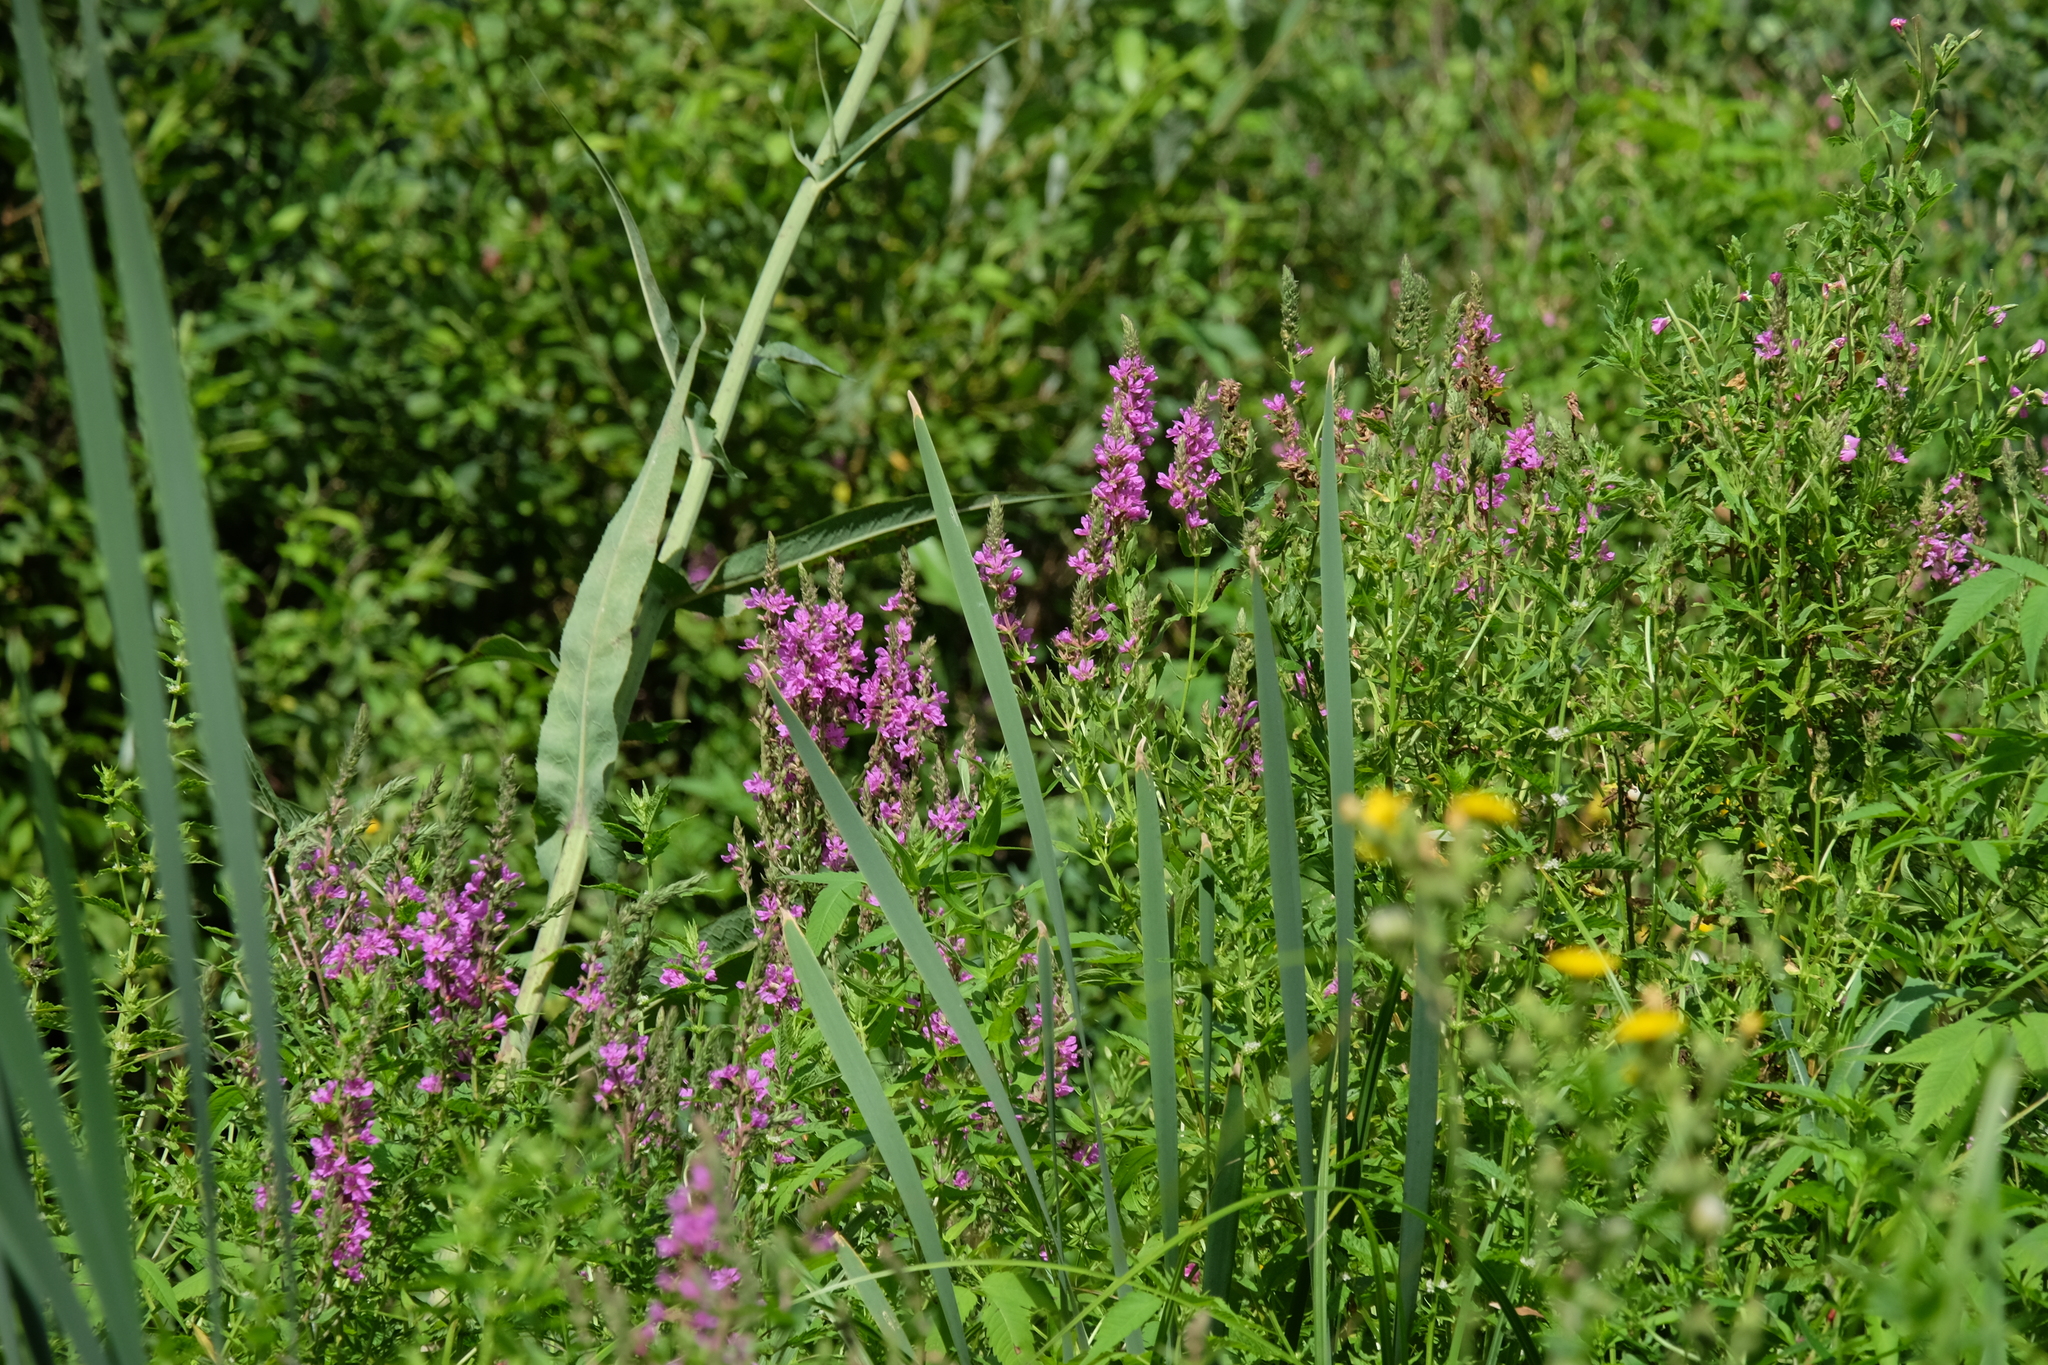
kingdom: Plantae
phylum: Tracheophyta
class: Magnoliopsida
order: Myrtales
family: Lythraceae
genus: Lythrum
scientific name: Lythrum salicaria
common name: Purple loosestrife
